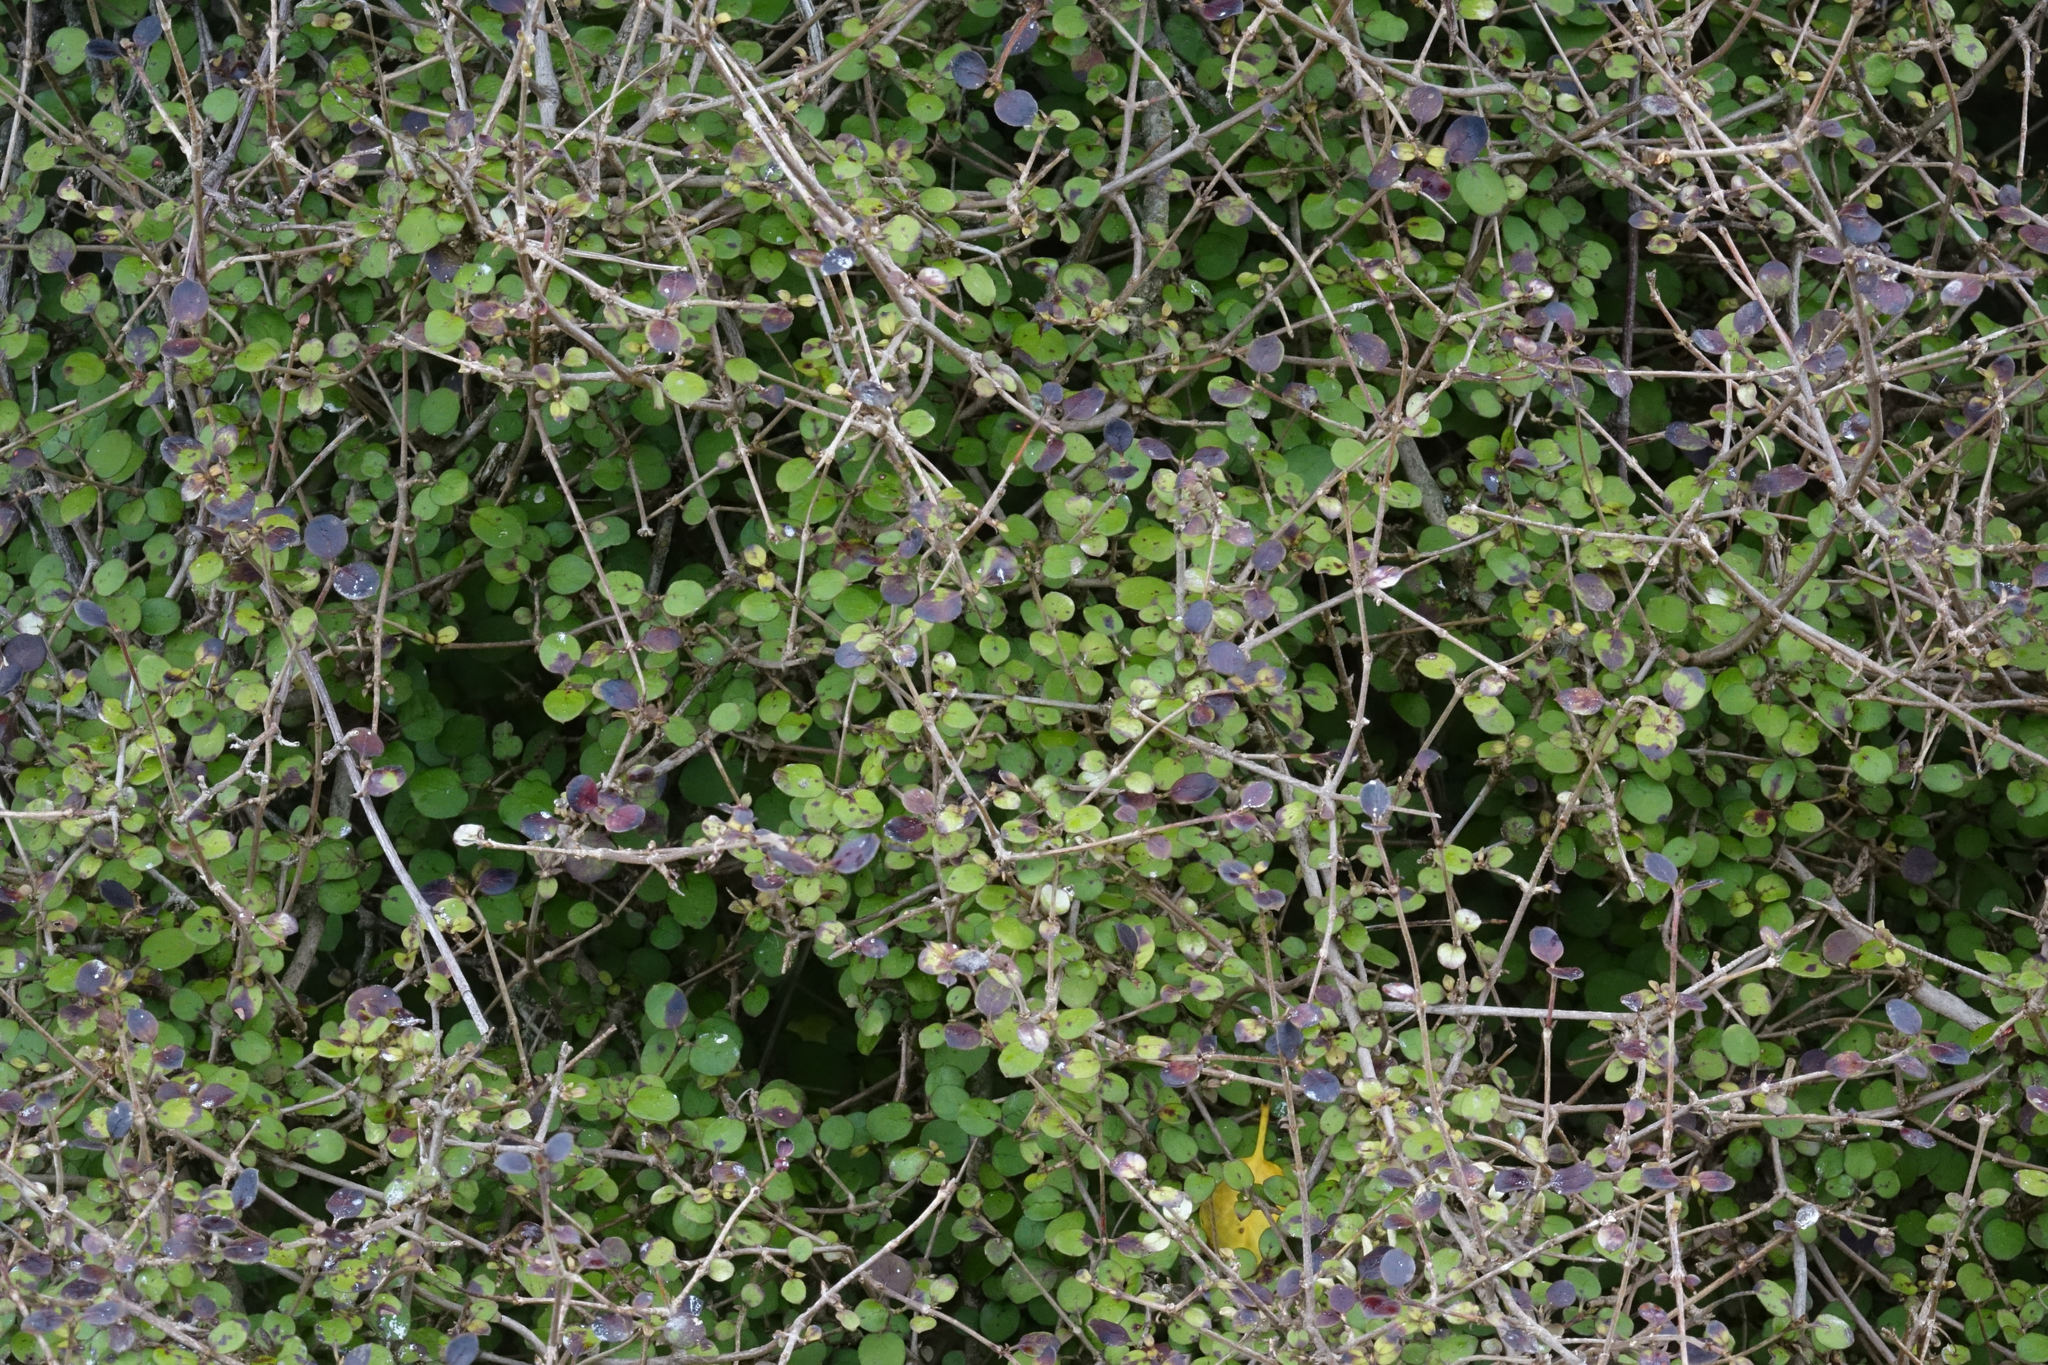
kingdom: Plantae
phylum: Tracheophyta
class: Magnoliopsida
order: Gentianales
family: Rubiaceae
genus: Coprosma
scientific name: Coprosma rotundifolia
